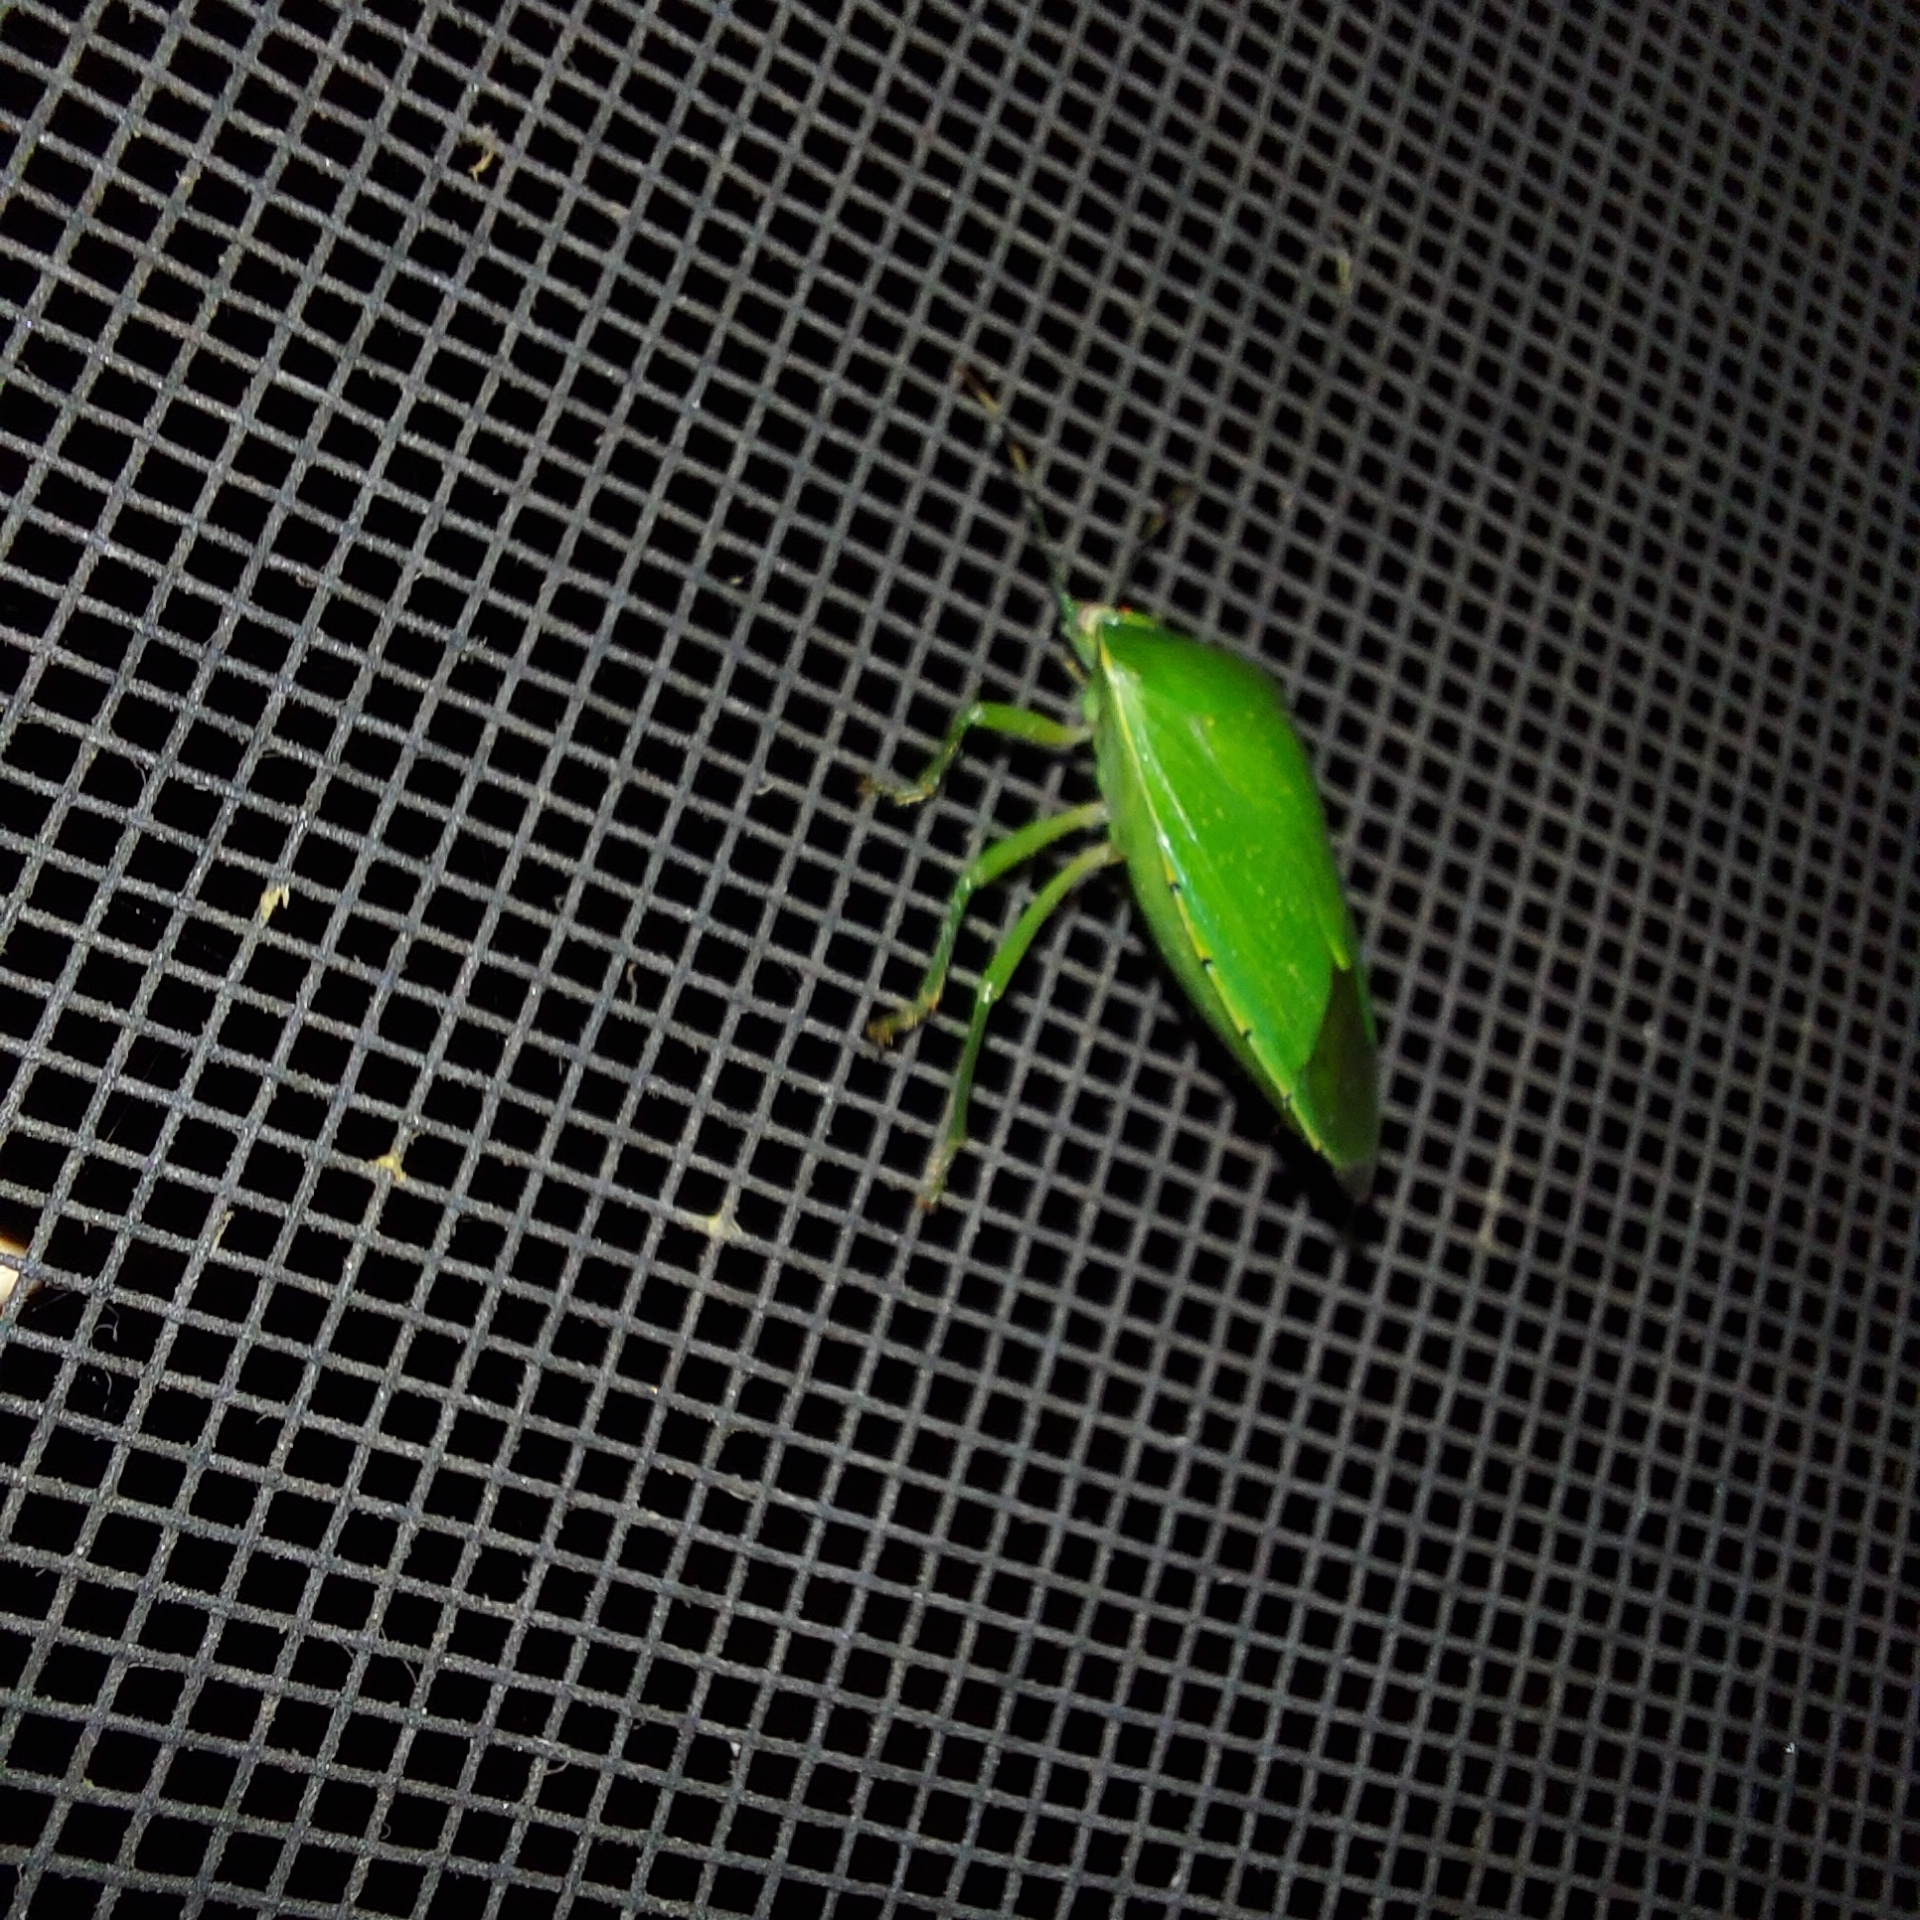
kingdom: Animalia
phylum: Arthropoda
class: Insecta
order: Hemiptera
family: Pentatomidae
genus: Chinavia
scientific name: Chinavia hilaris
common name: Green stink bug
